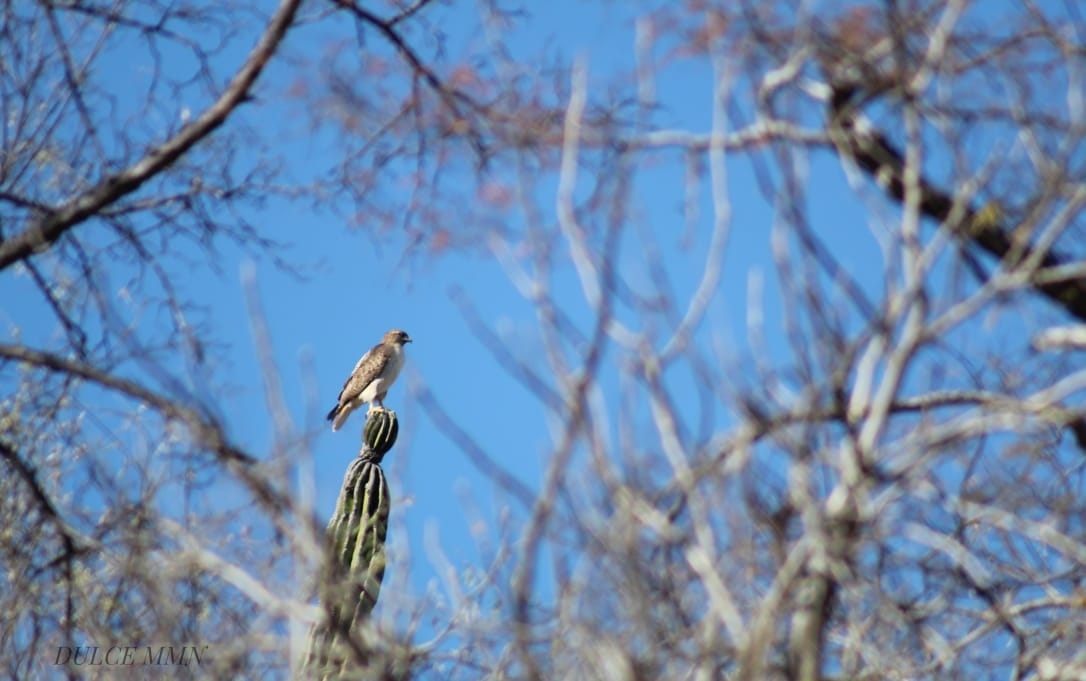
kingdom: Animalia
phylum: Chordata
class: Aves
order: Accipitriformes
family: Accipitridae
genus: Buteo
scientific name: Buteo jamaicensis
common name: Red-tailed hawk
